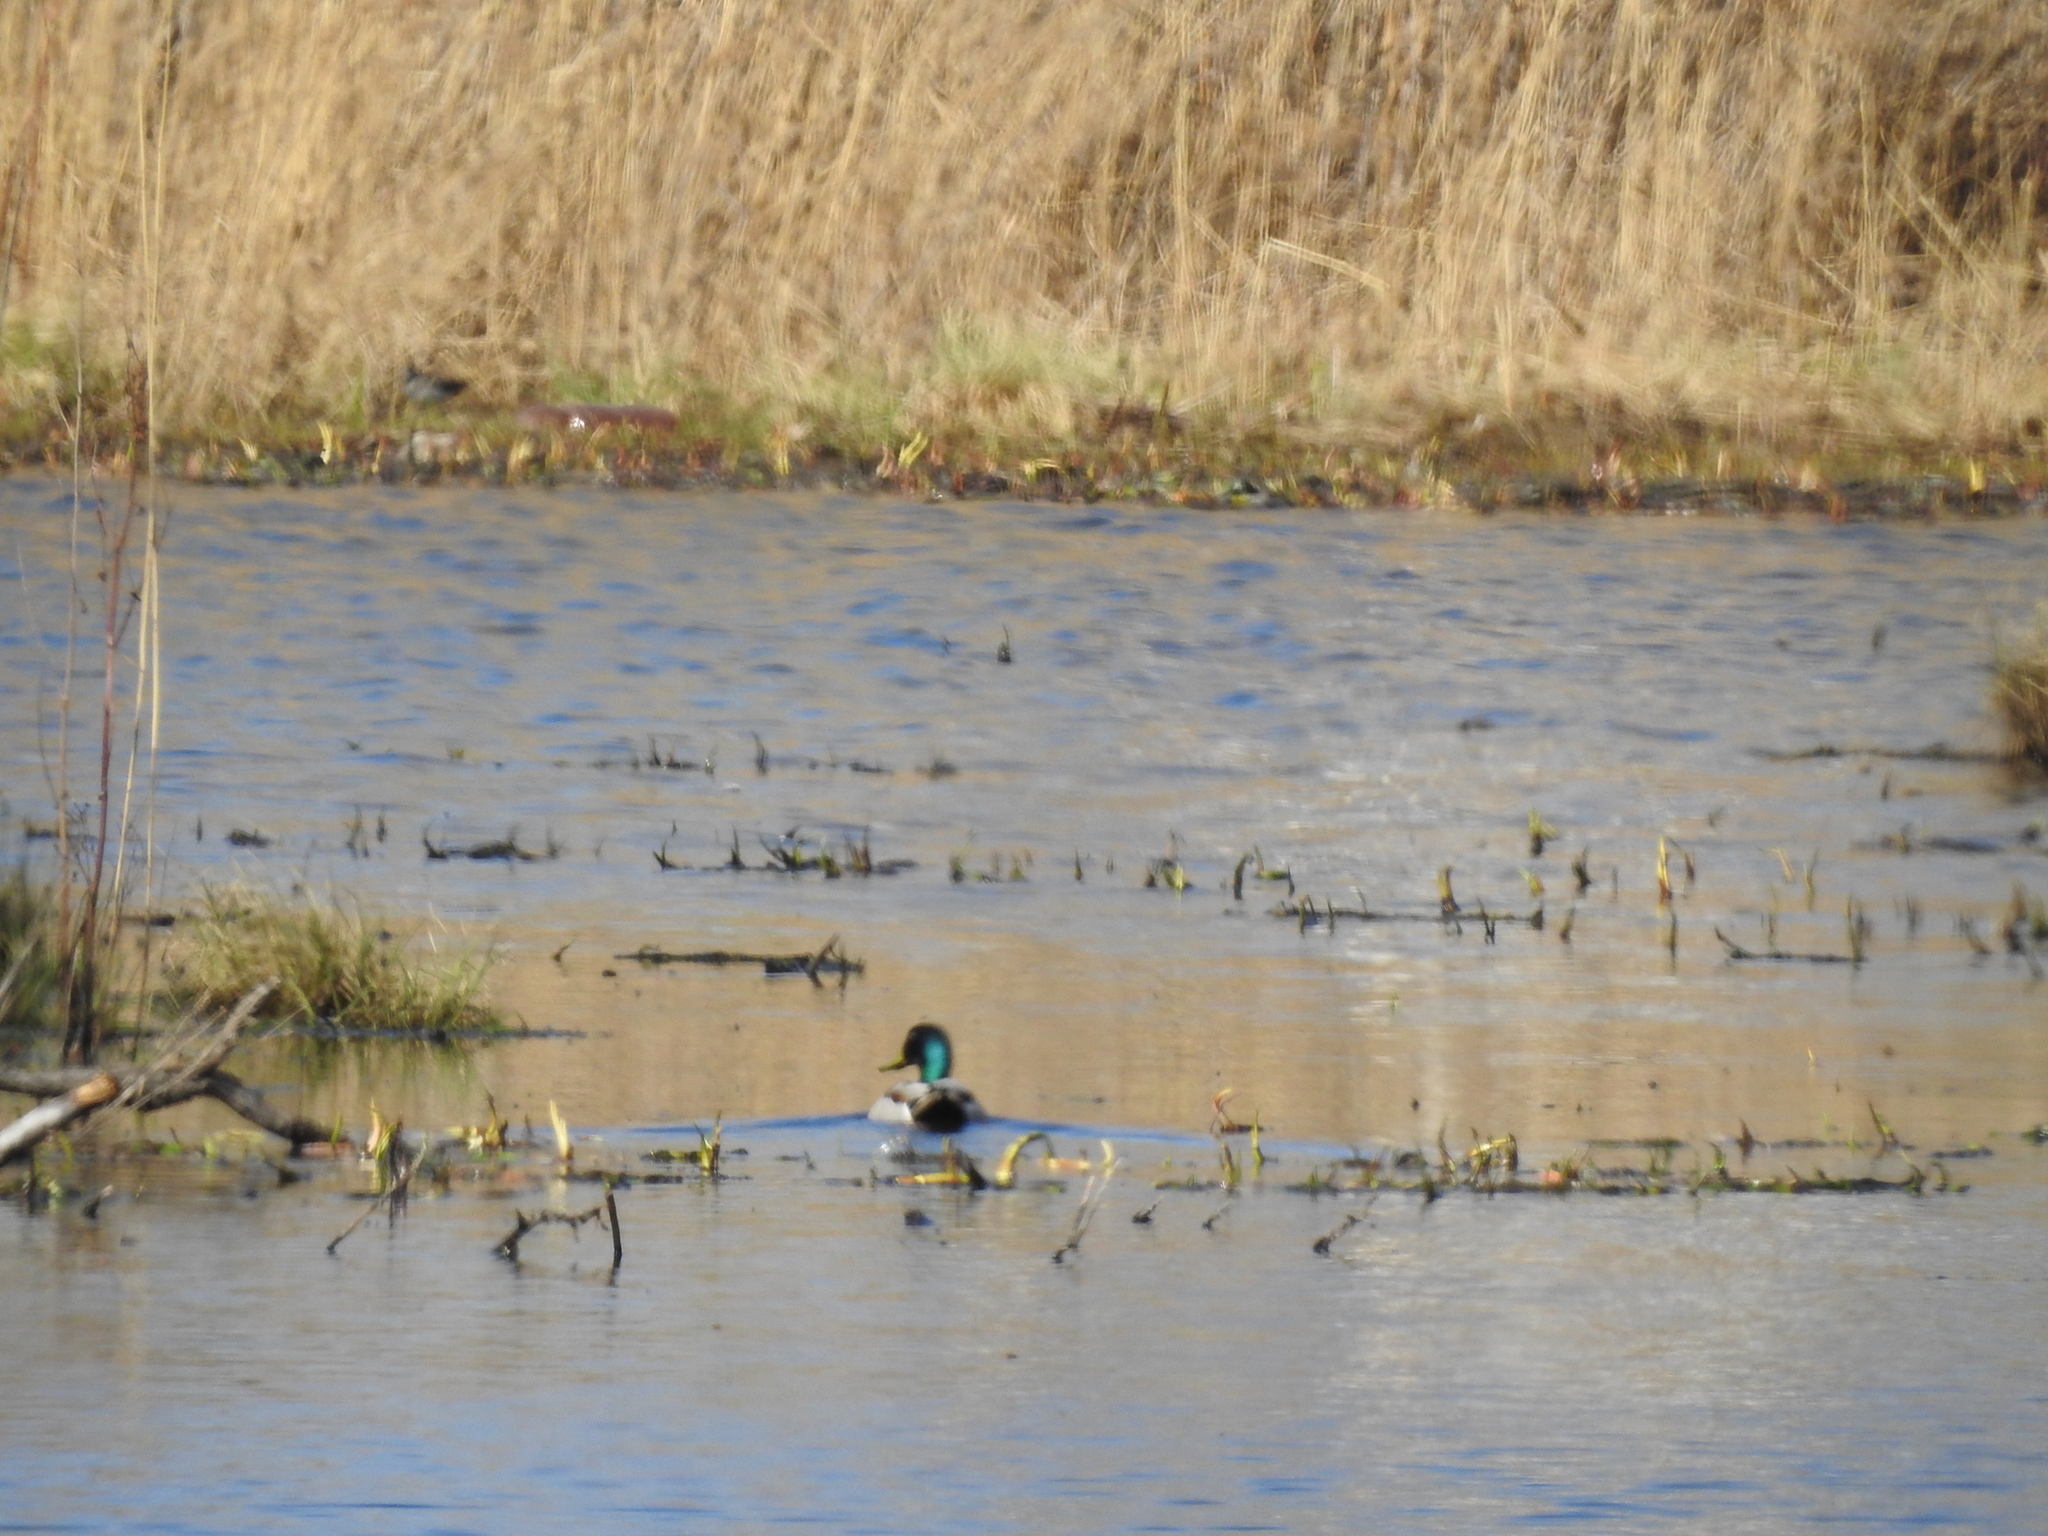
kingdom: Animalia
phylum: Chordata
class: Aves
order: Anseriformes
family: Anatidae
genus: Anas
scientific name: Anas platyrhynchos
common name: Mallard
